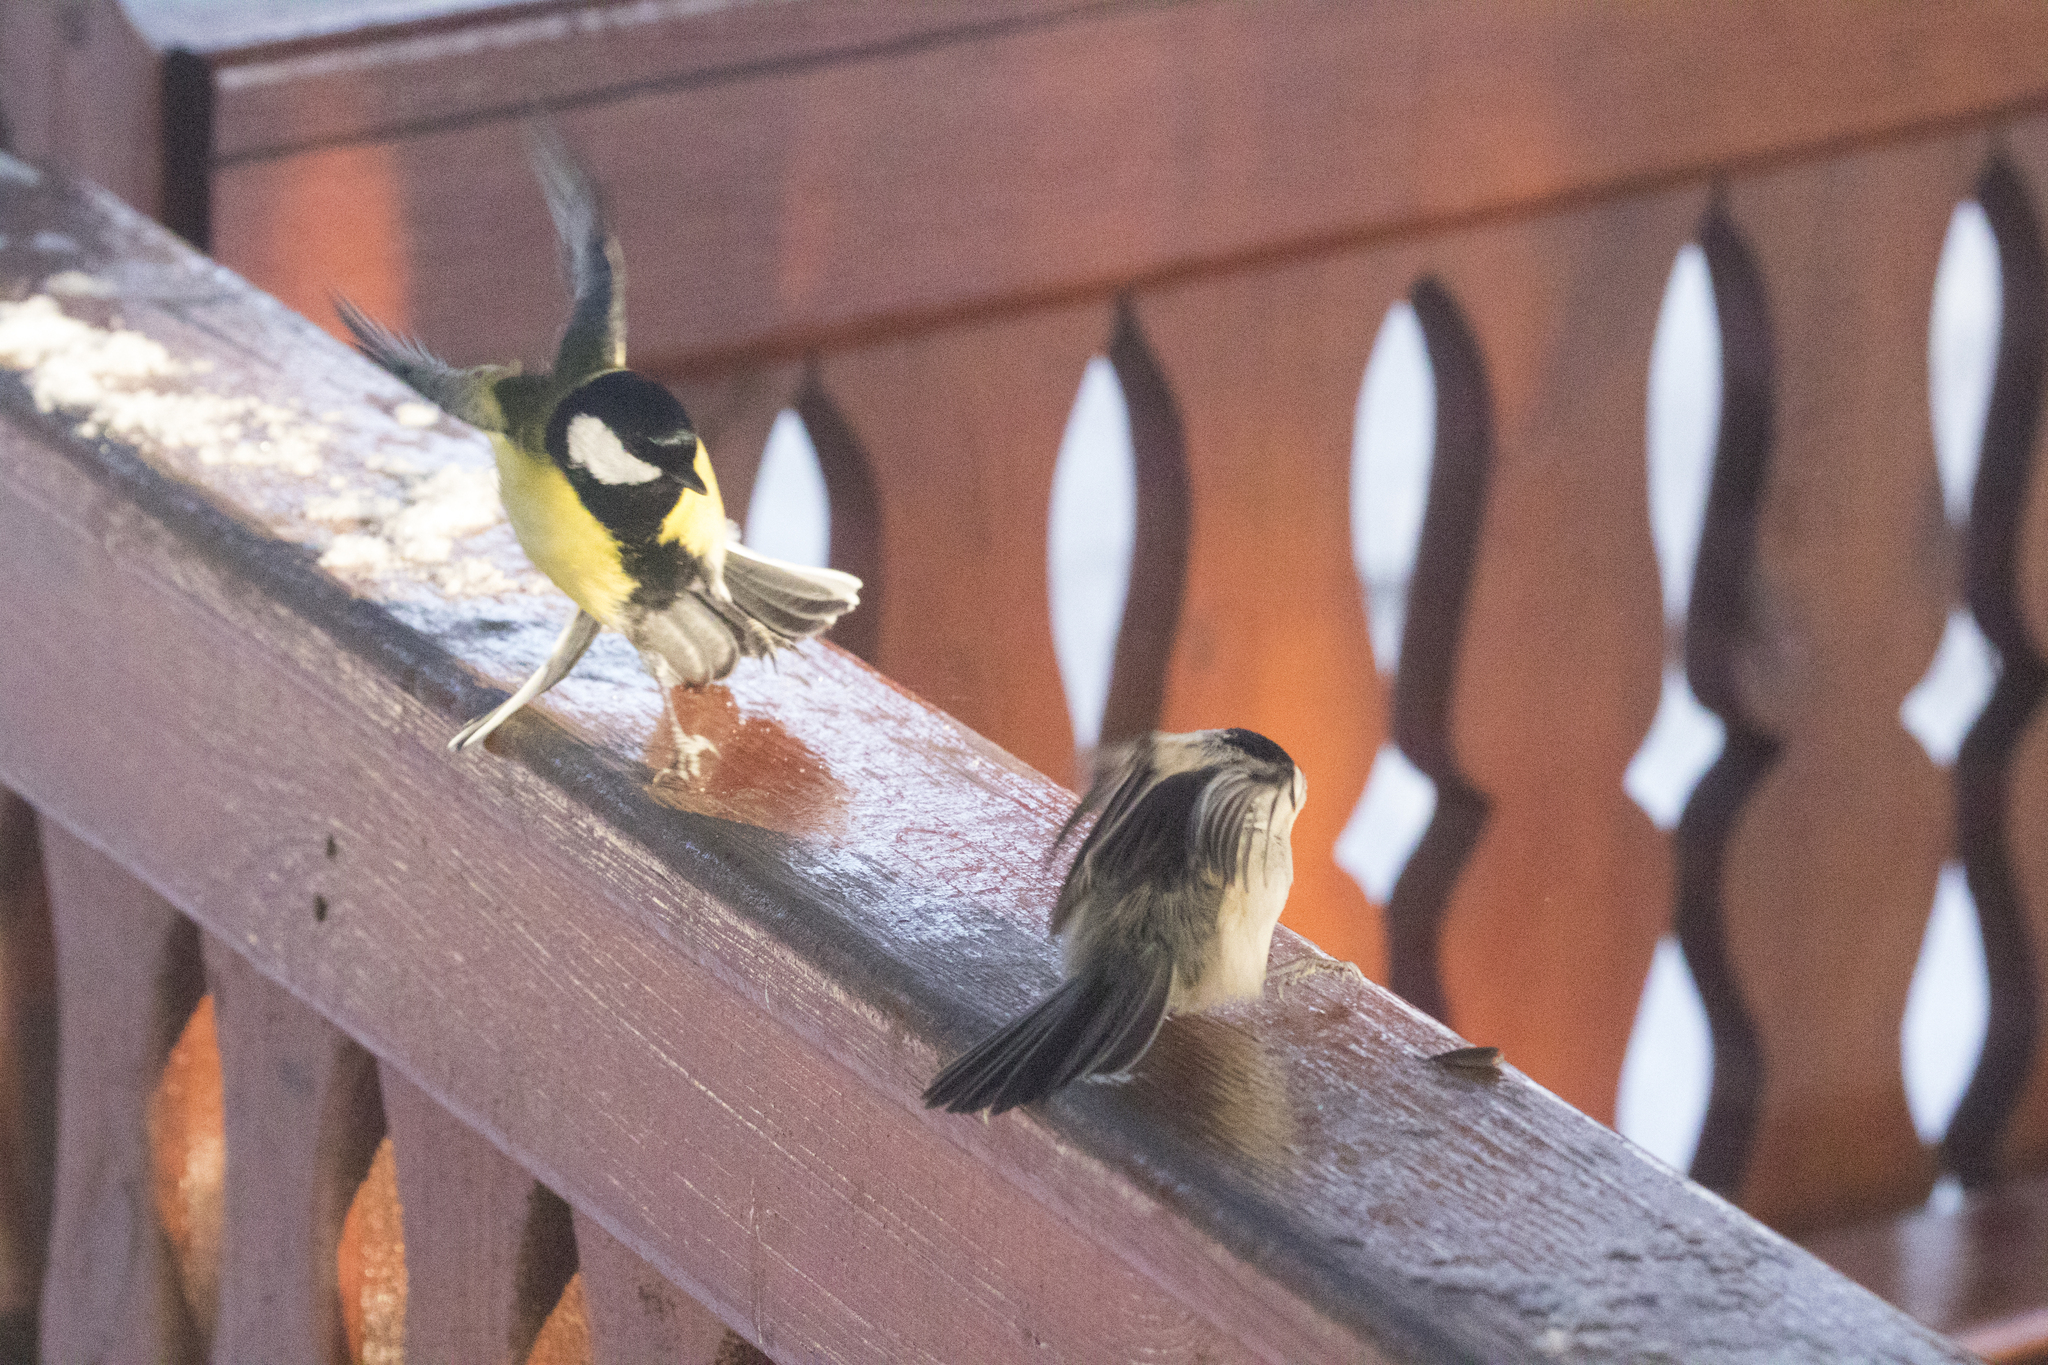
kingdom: Animalia
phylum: Chordata
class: Aves
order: Passeriformes
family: Paridae
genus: Poecile
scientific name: Poecile montanus
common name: Willow tit
